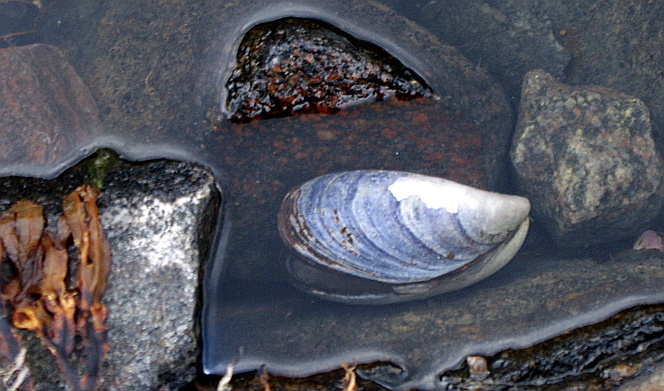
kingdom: Animalia
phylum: Mollusca
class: Bivalvia
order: Mytilida
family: Mytilidae
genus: Mytilus
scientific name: Mytilus edulis
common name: Blue mussel
